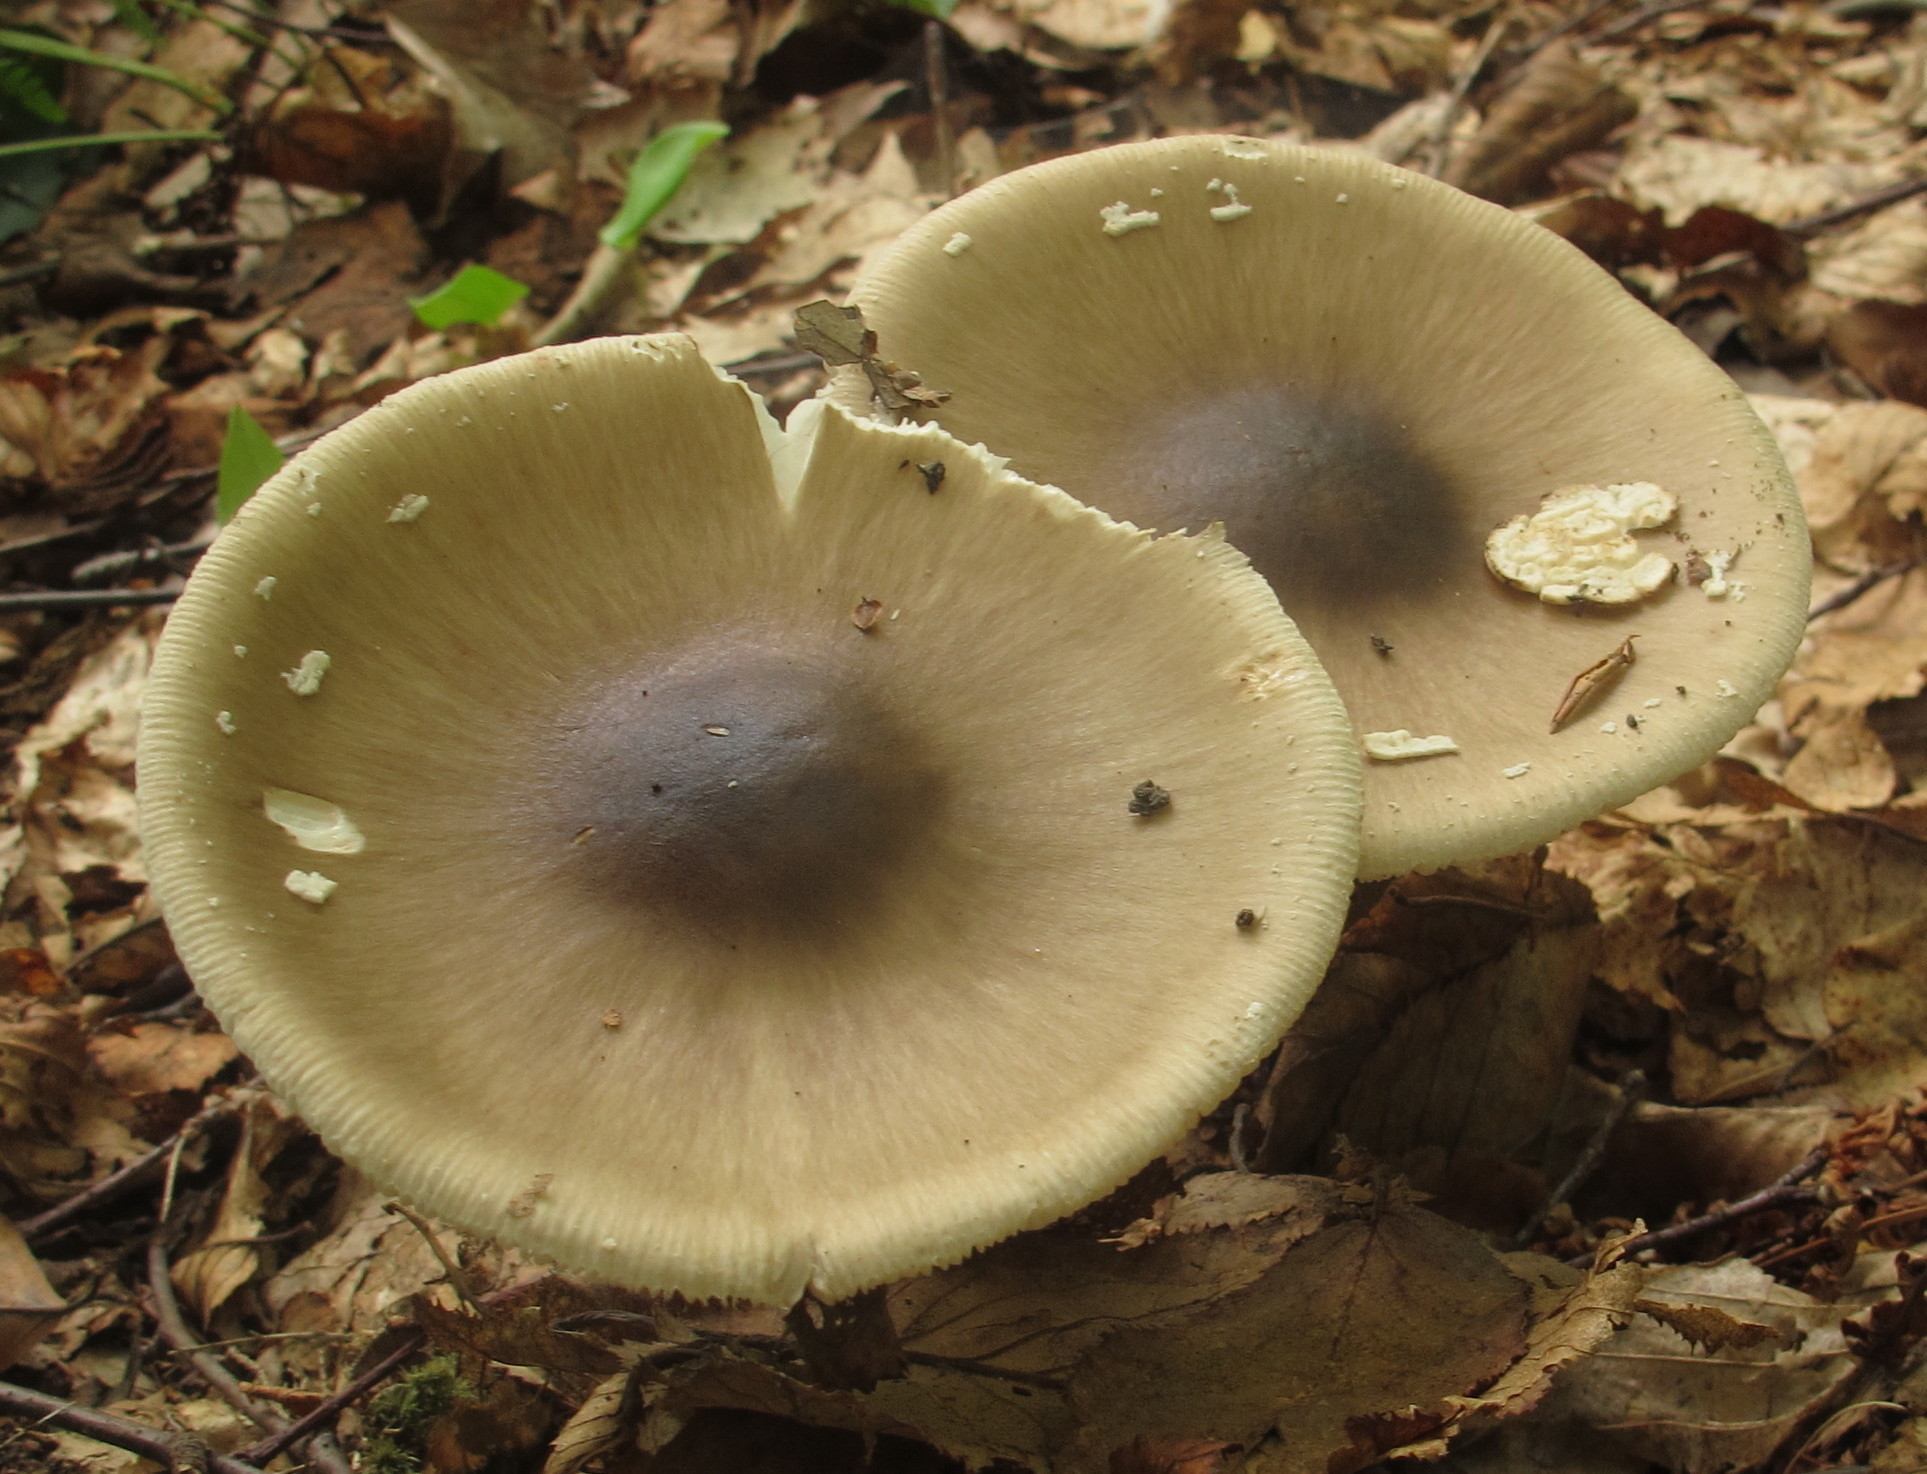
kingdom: Fungi
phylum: Basidiomycota
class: Agaricomycetes
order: Agaricales
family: Amanitaceae
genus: Amanita
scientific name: Amanita brunnescens
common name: Brown american star-footed amanita
